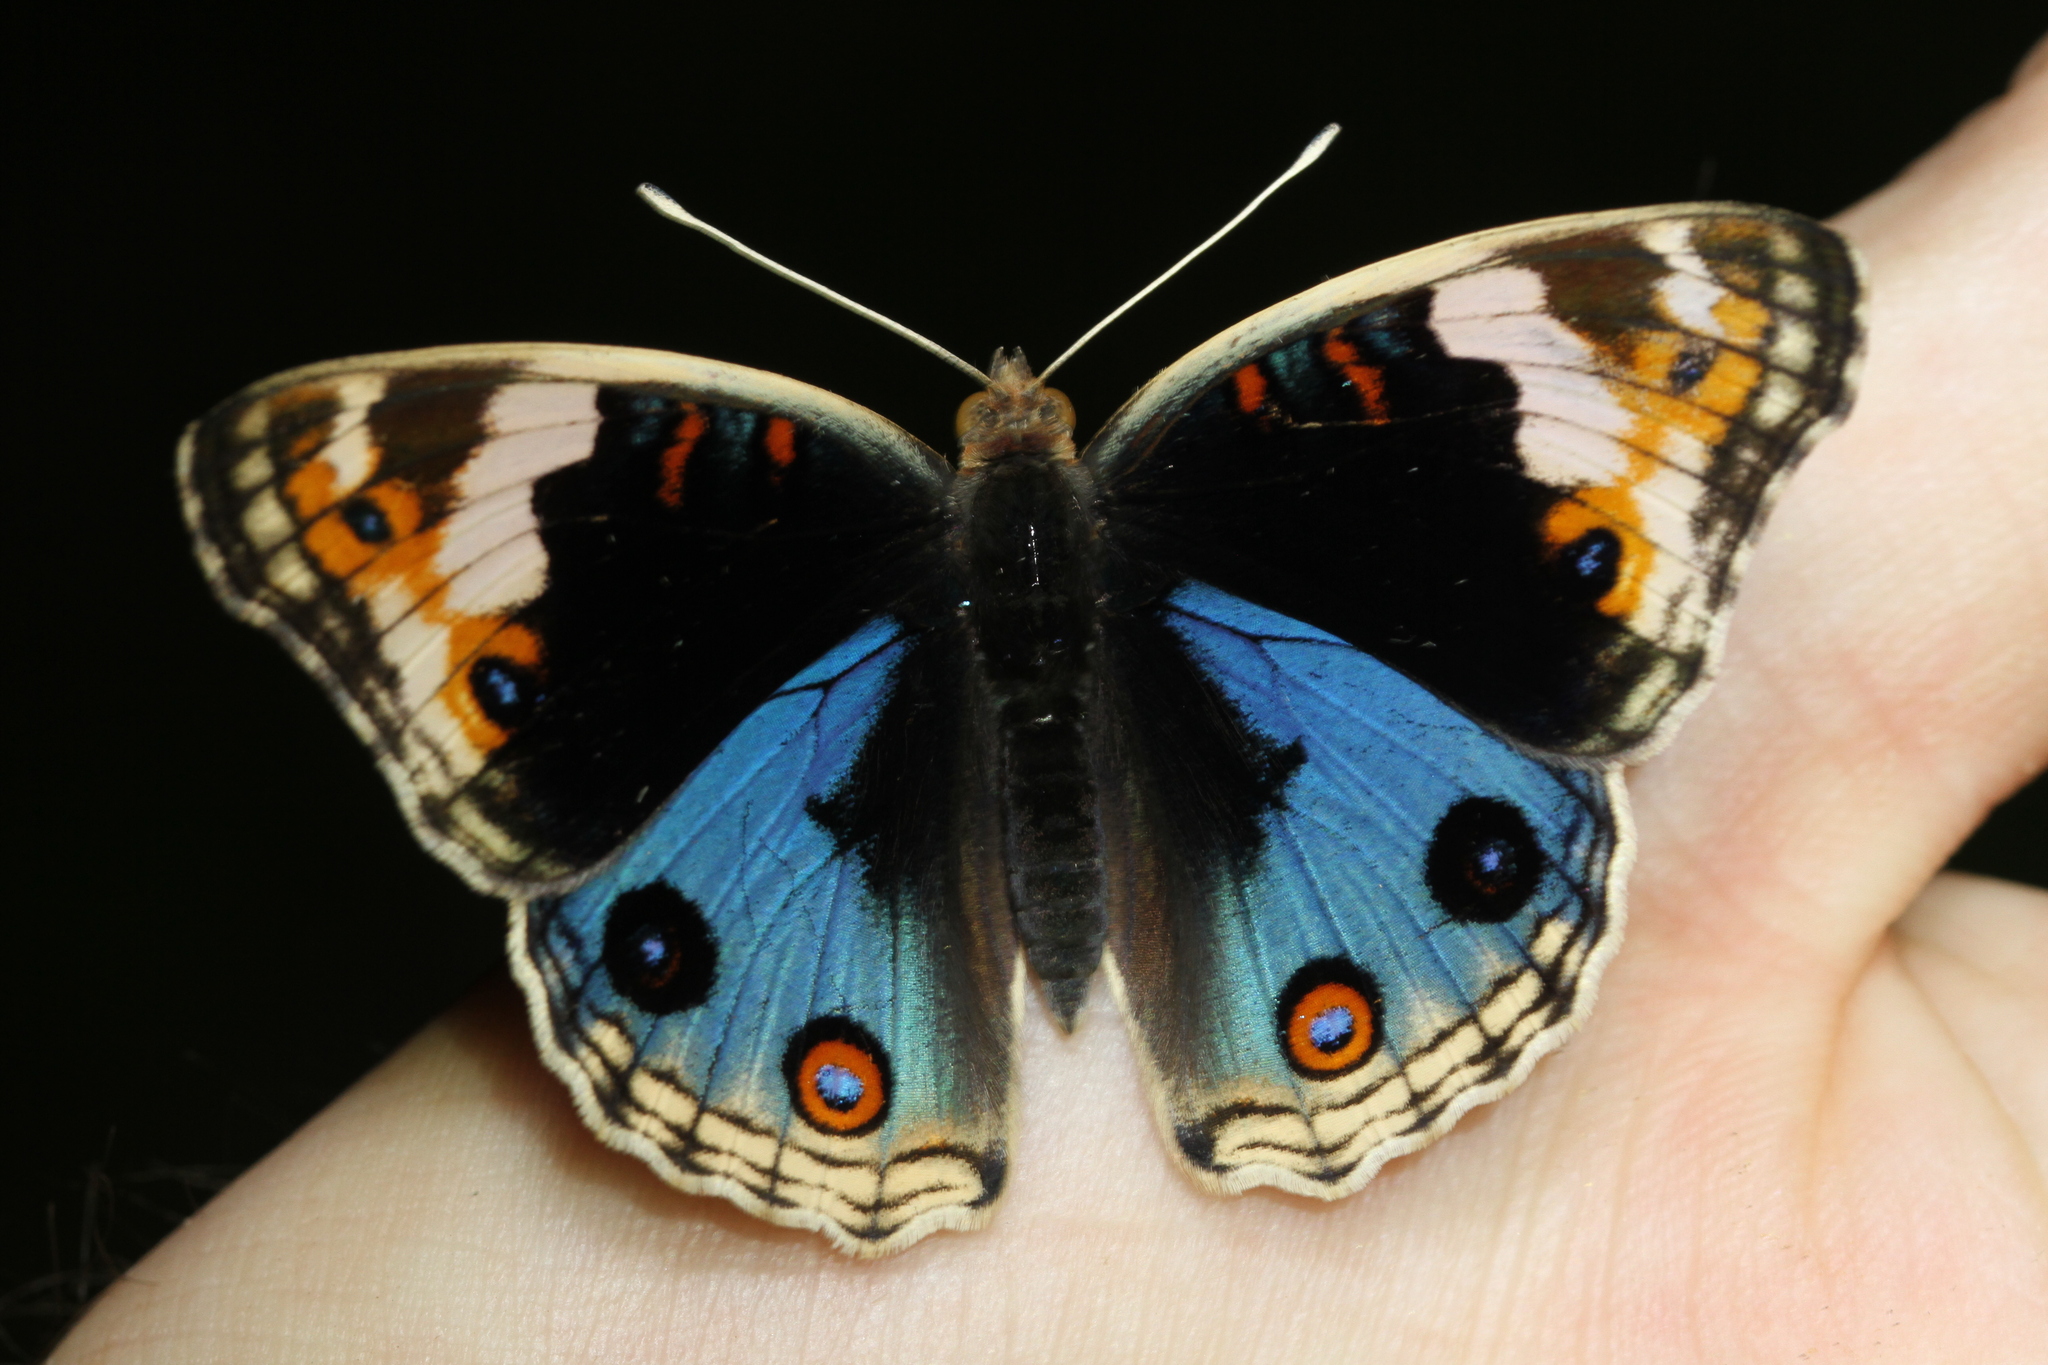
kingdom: Animalia
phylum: Arthropoda
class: Insecta
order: Lepidoptera
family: Nymphalidae
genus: Junonia
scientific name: Junonia orithya
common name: Blue pansy
